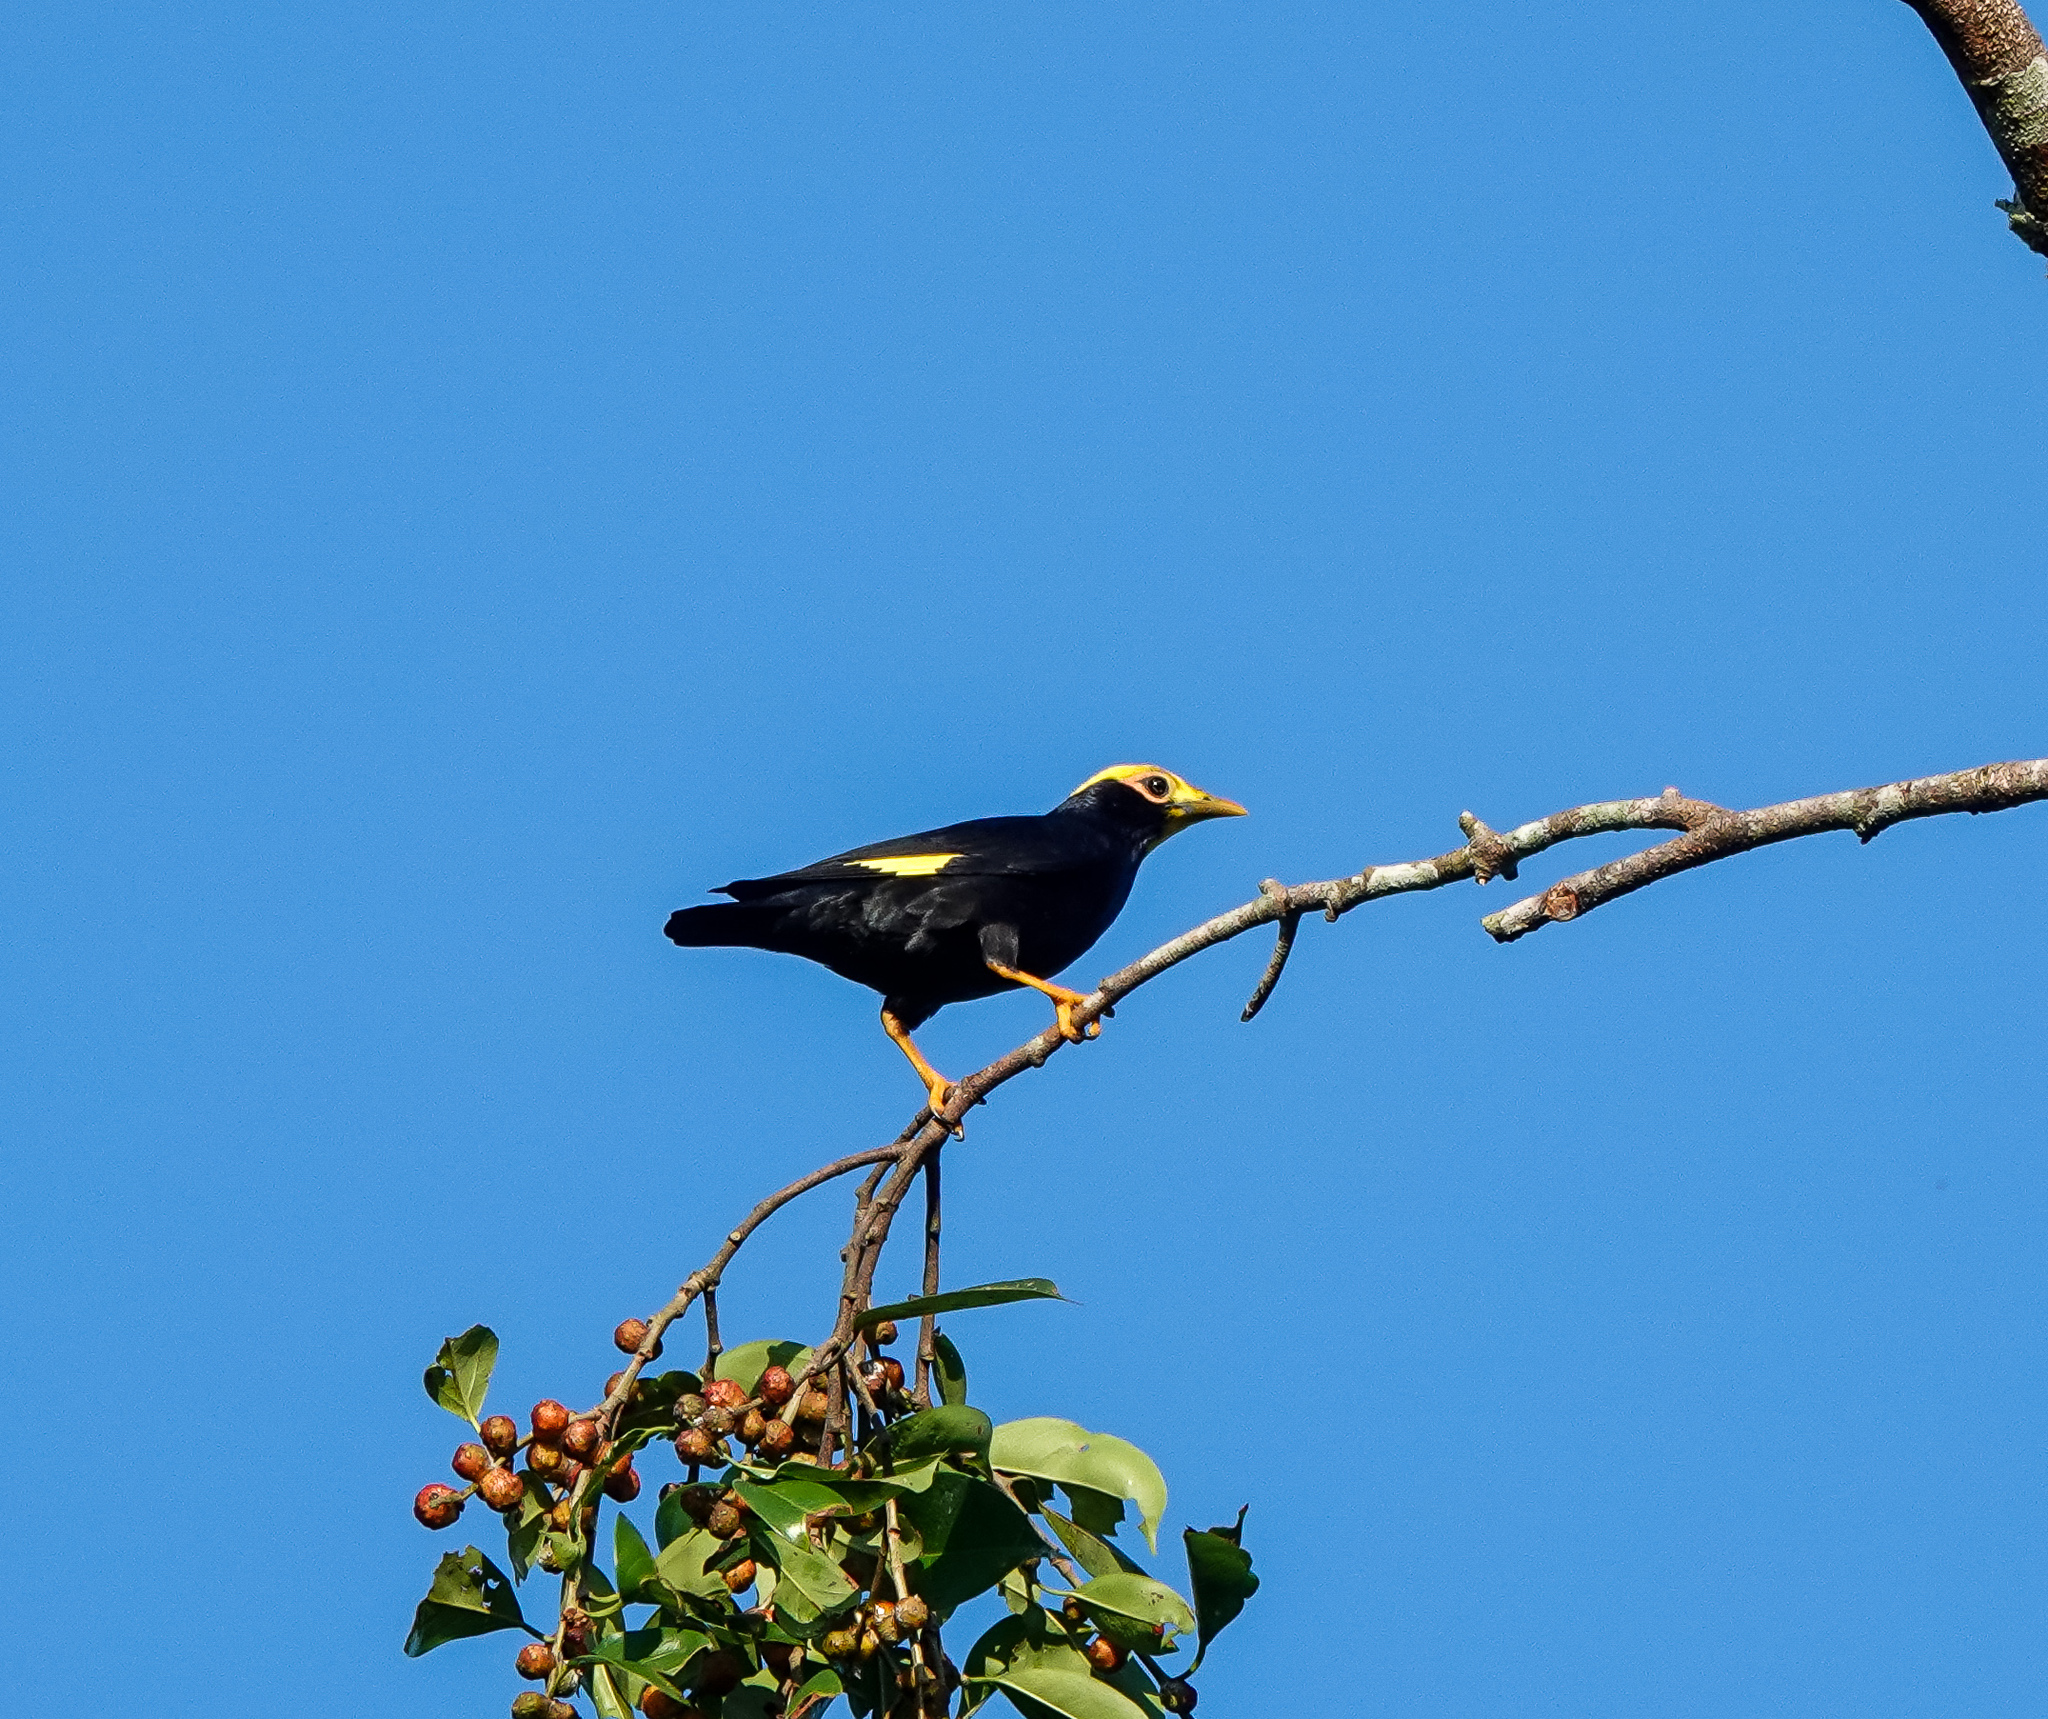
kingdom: Animalia
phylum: Chordata
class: Aves
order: Passeriformes
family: Sturnidae
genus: Ampeliceps
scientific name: Ampeliceps coronatus
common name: Golden-crested myna
